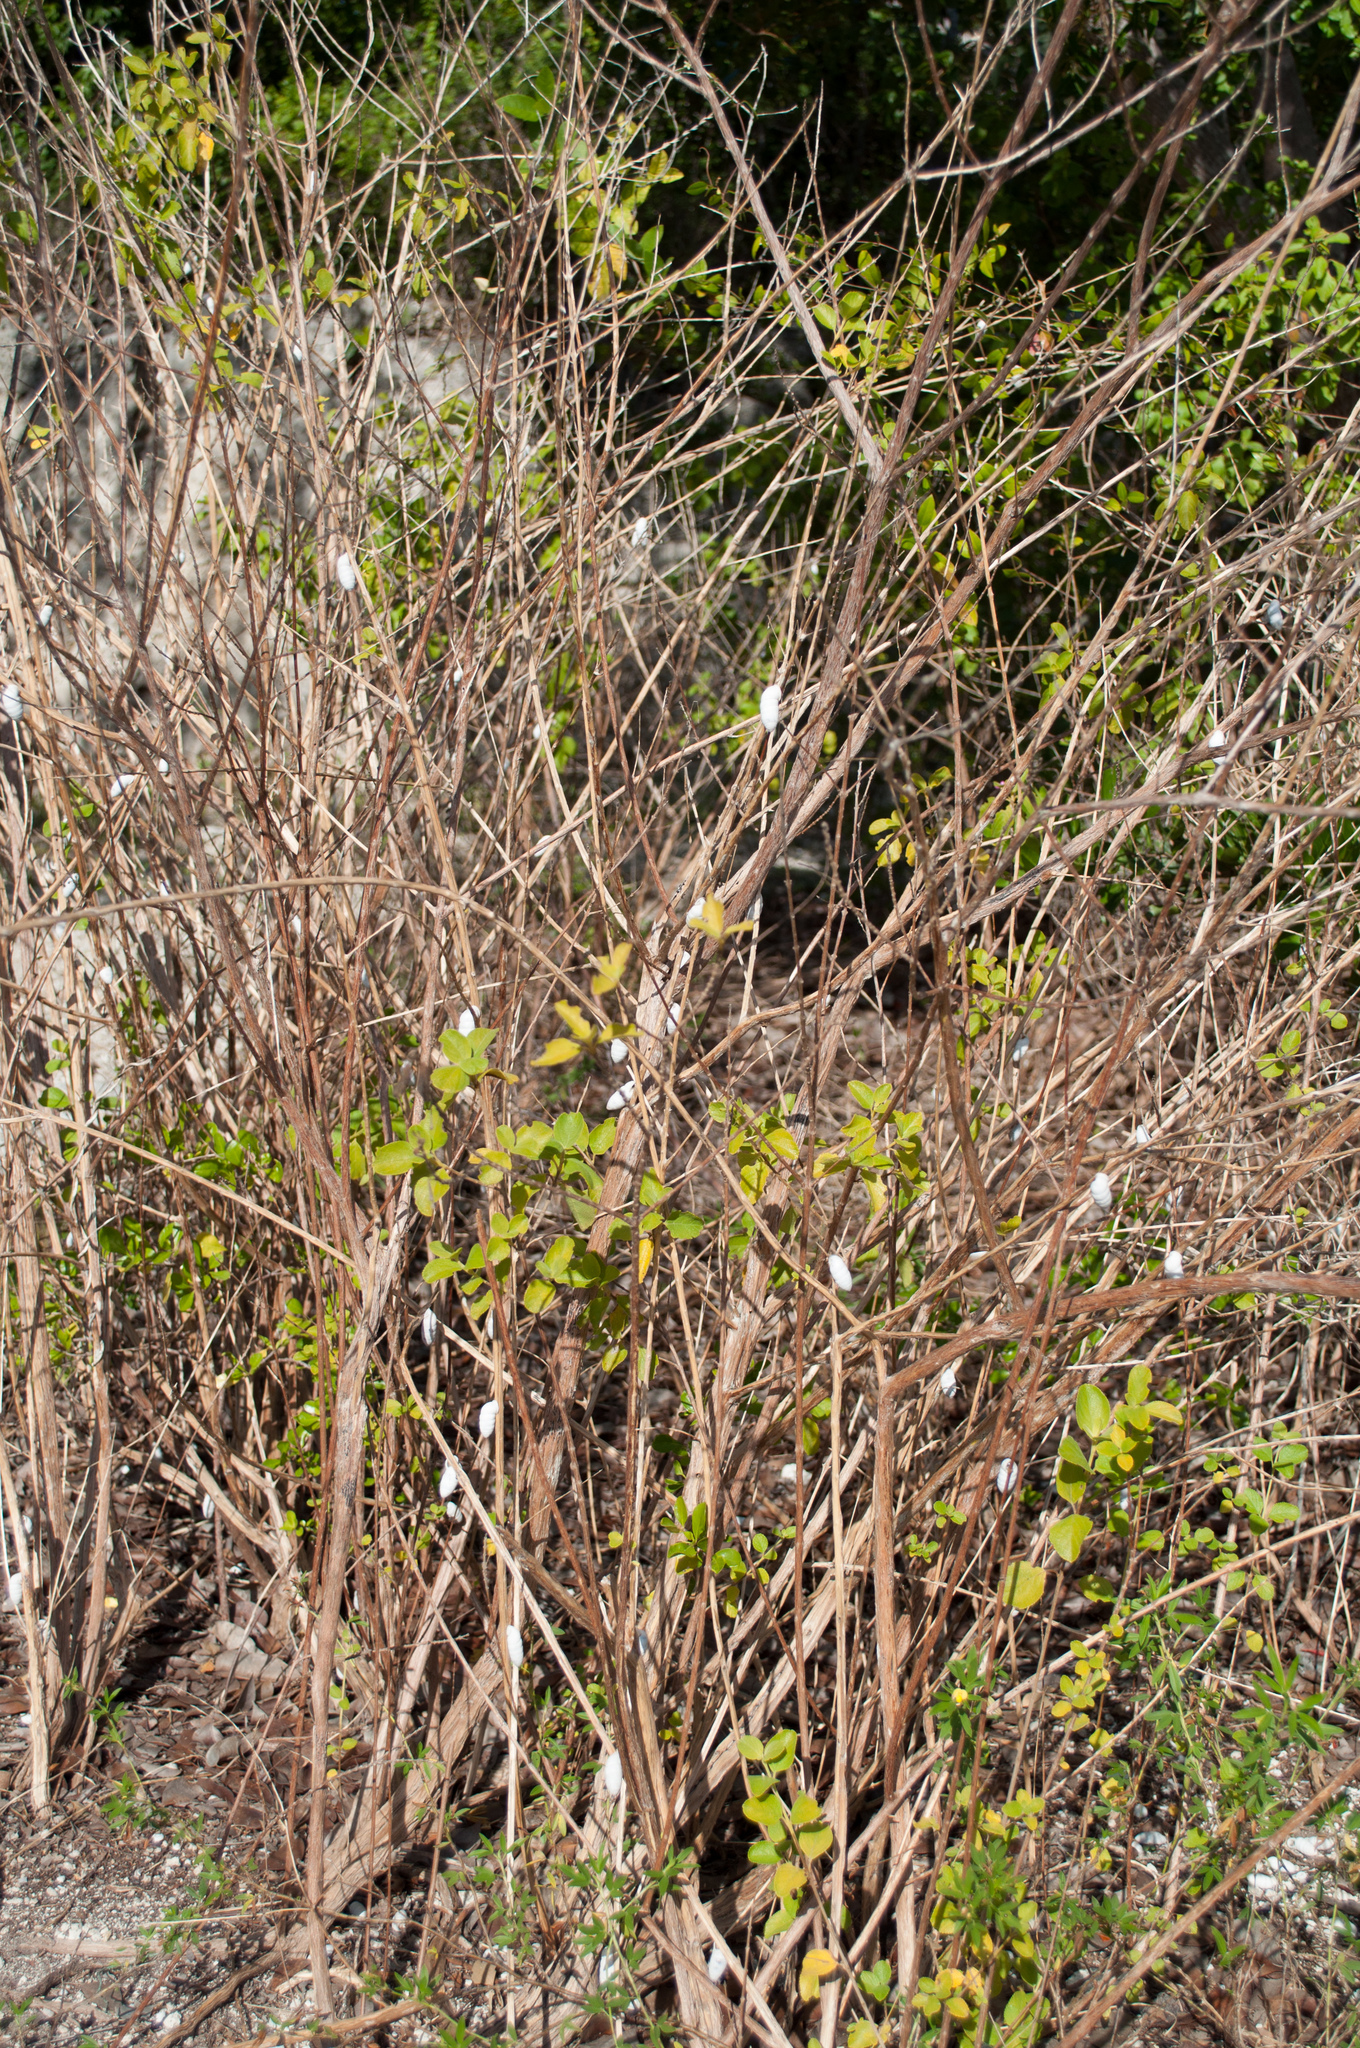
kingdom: Animalia
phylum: Mollusca
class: Gastropoda
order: Stylommatophora
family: Cerionidae
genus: Cerion
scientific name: Cerion incanum
